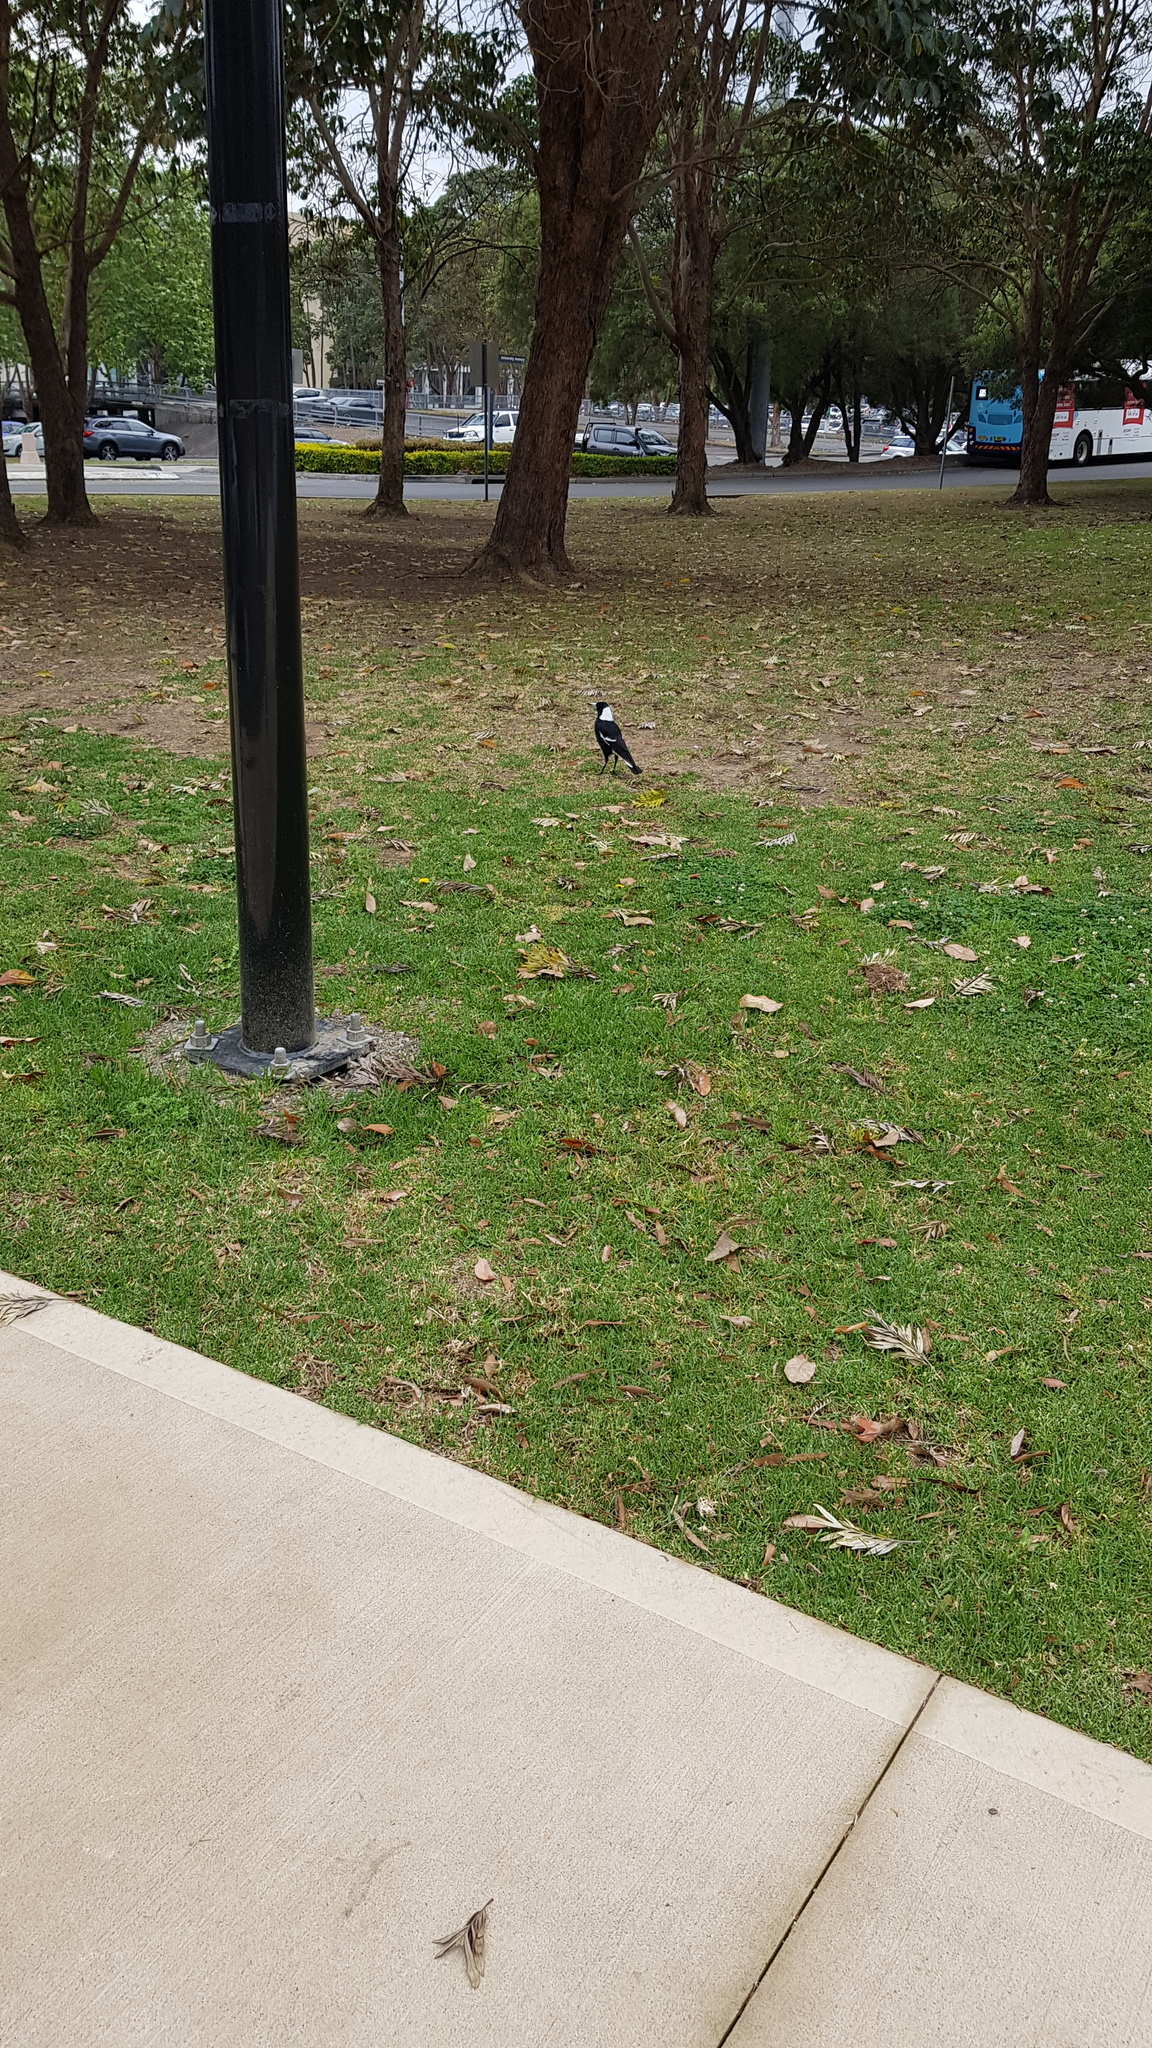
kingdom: Animalia
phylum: Chordata
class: Aves
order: Passeriformes
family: Cracticidae
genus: Gymnorhina
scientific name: Gymnorhina tibicen
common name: Australian magpie
